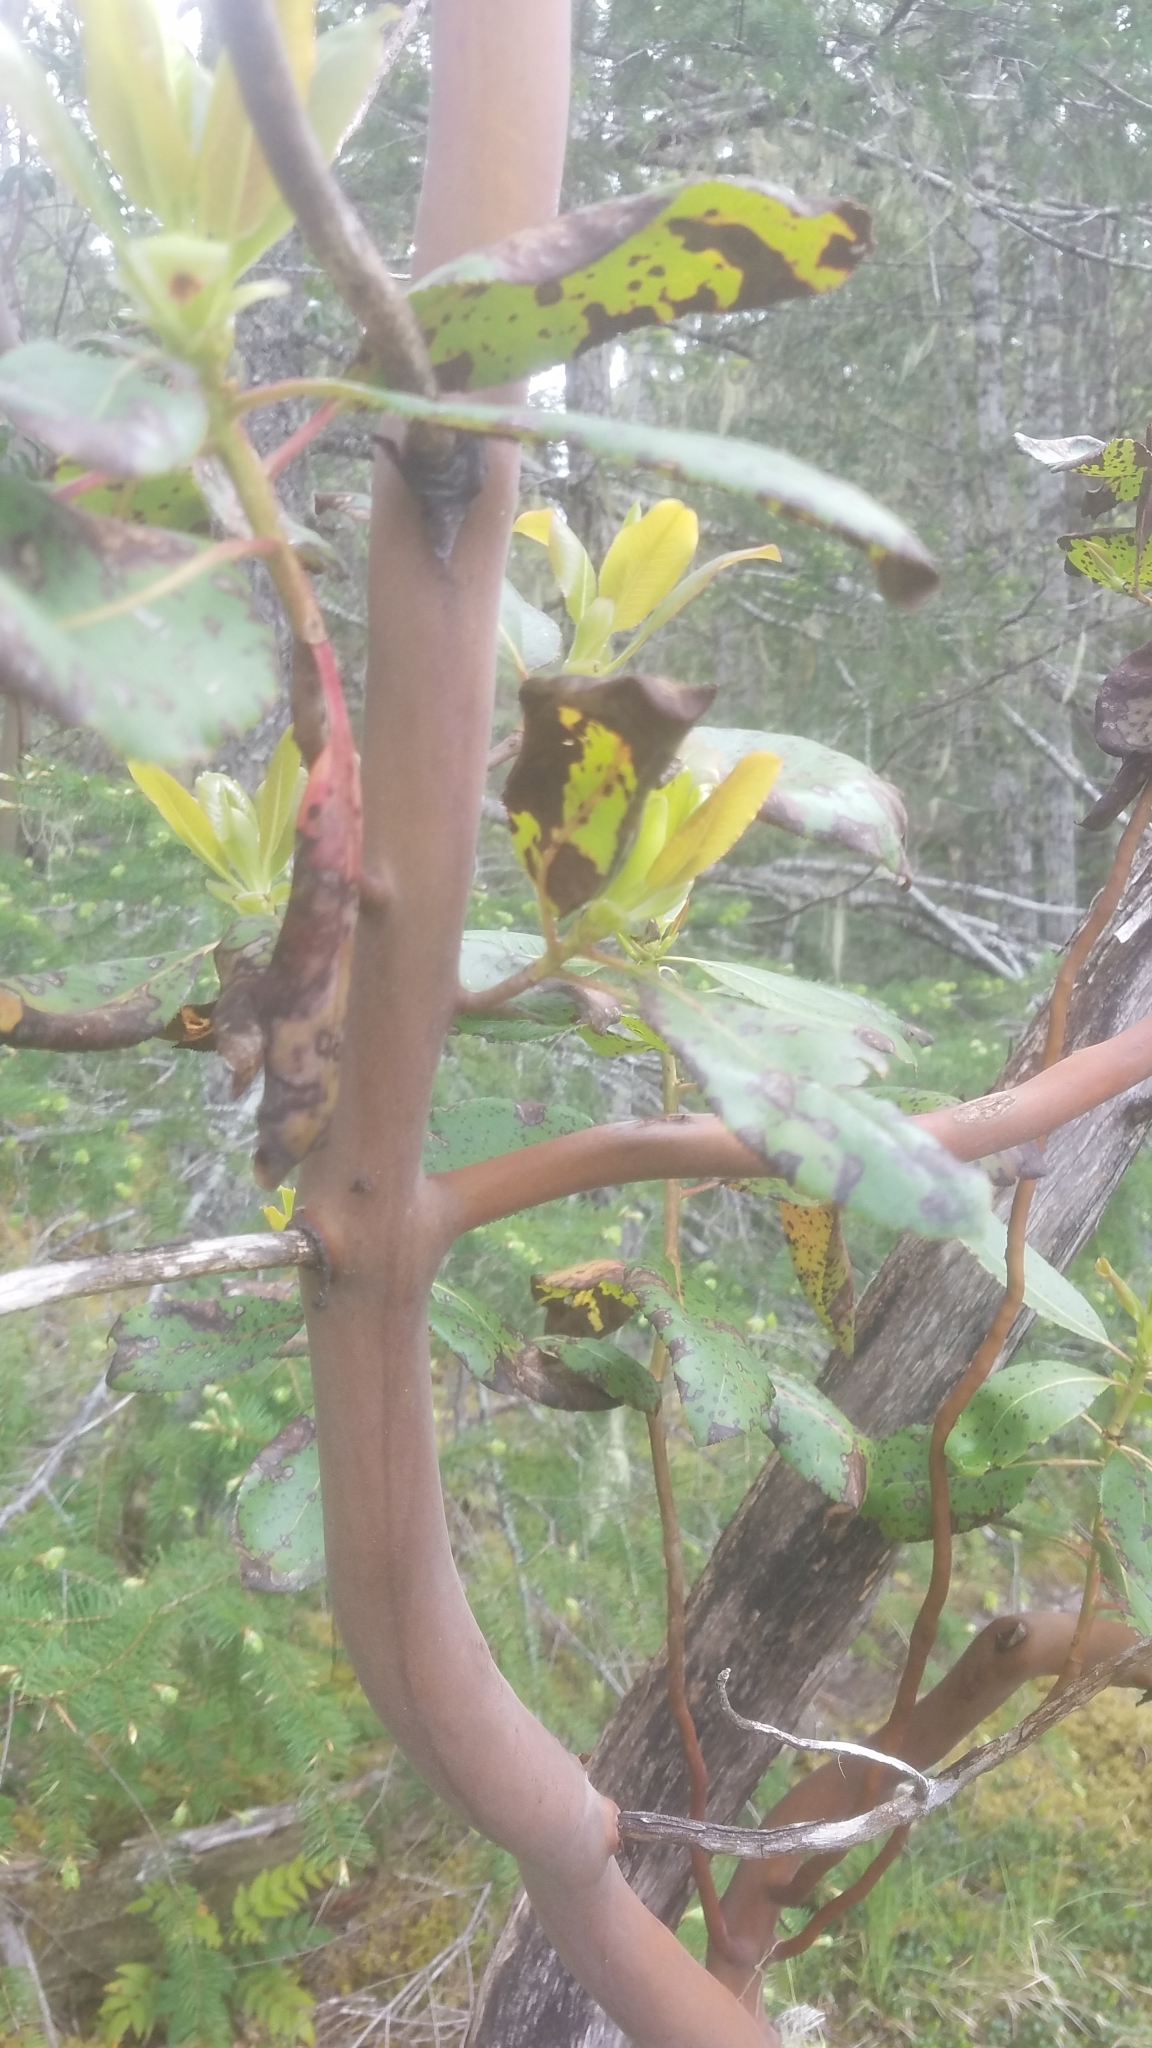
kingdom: Plantae
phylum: Tracheophyta
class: Magnoliopsida
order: Ericales
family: Ericaceae
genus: Arbutus
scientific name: Arbutus menziesii
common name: Pacific madrone
